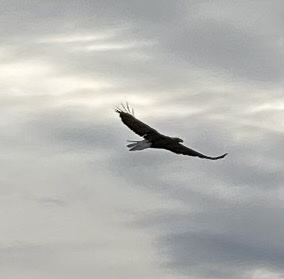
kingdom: Animalia
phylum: Chordata
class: Aves
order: Accipitriformes
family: Accipitridae
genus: Haliaeetus
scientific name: Haliaeetus leucocephalus
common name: Bald eagle
